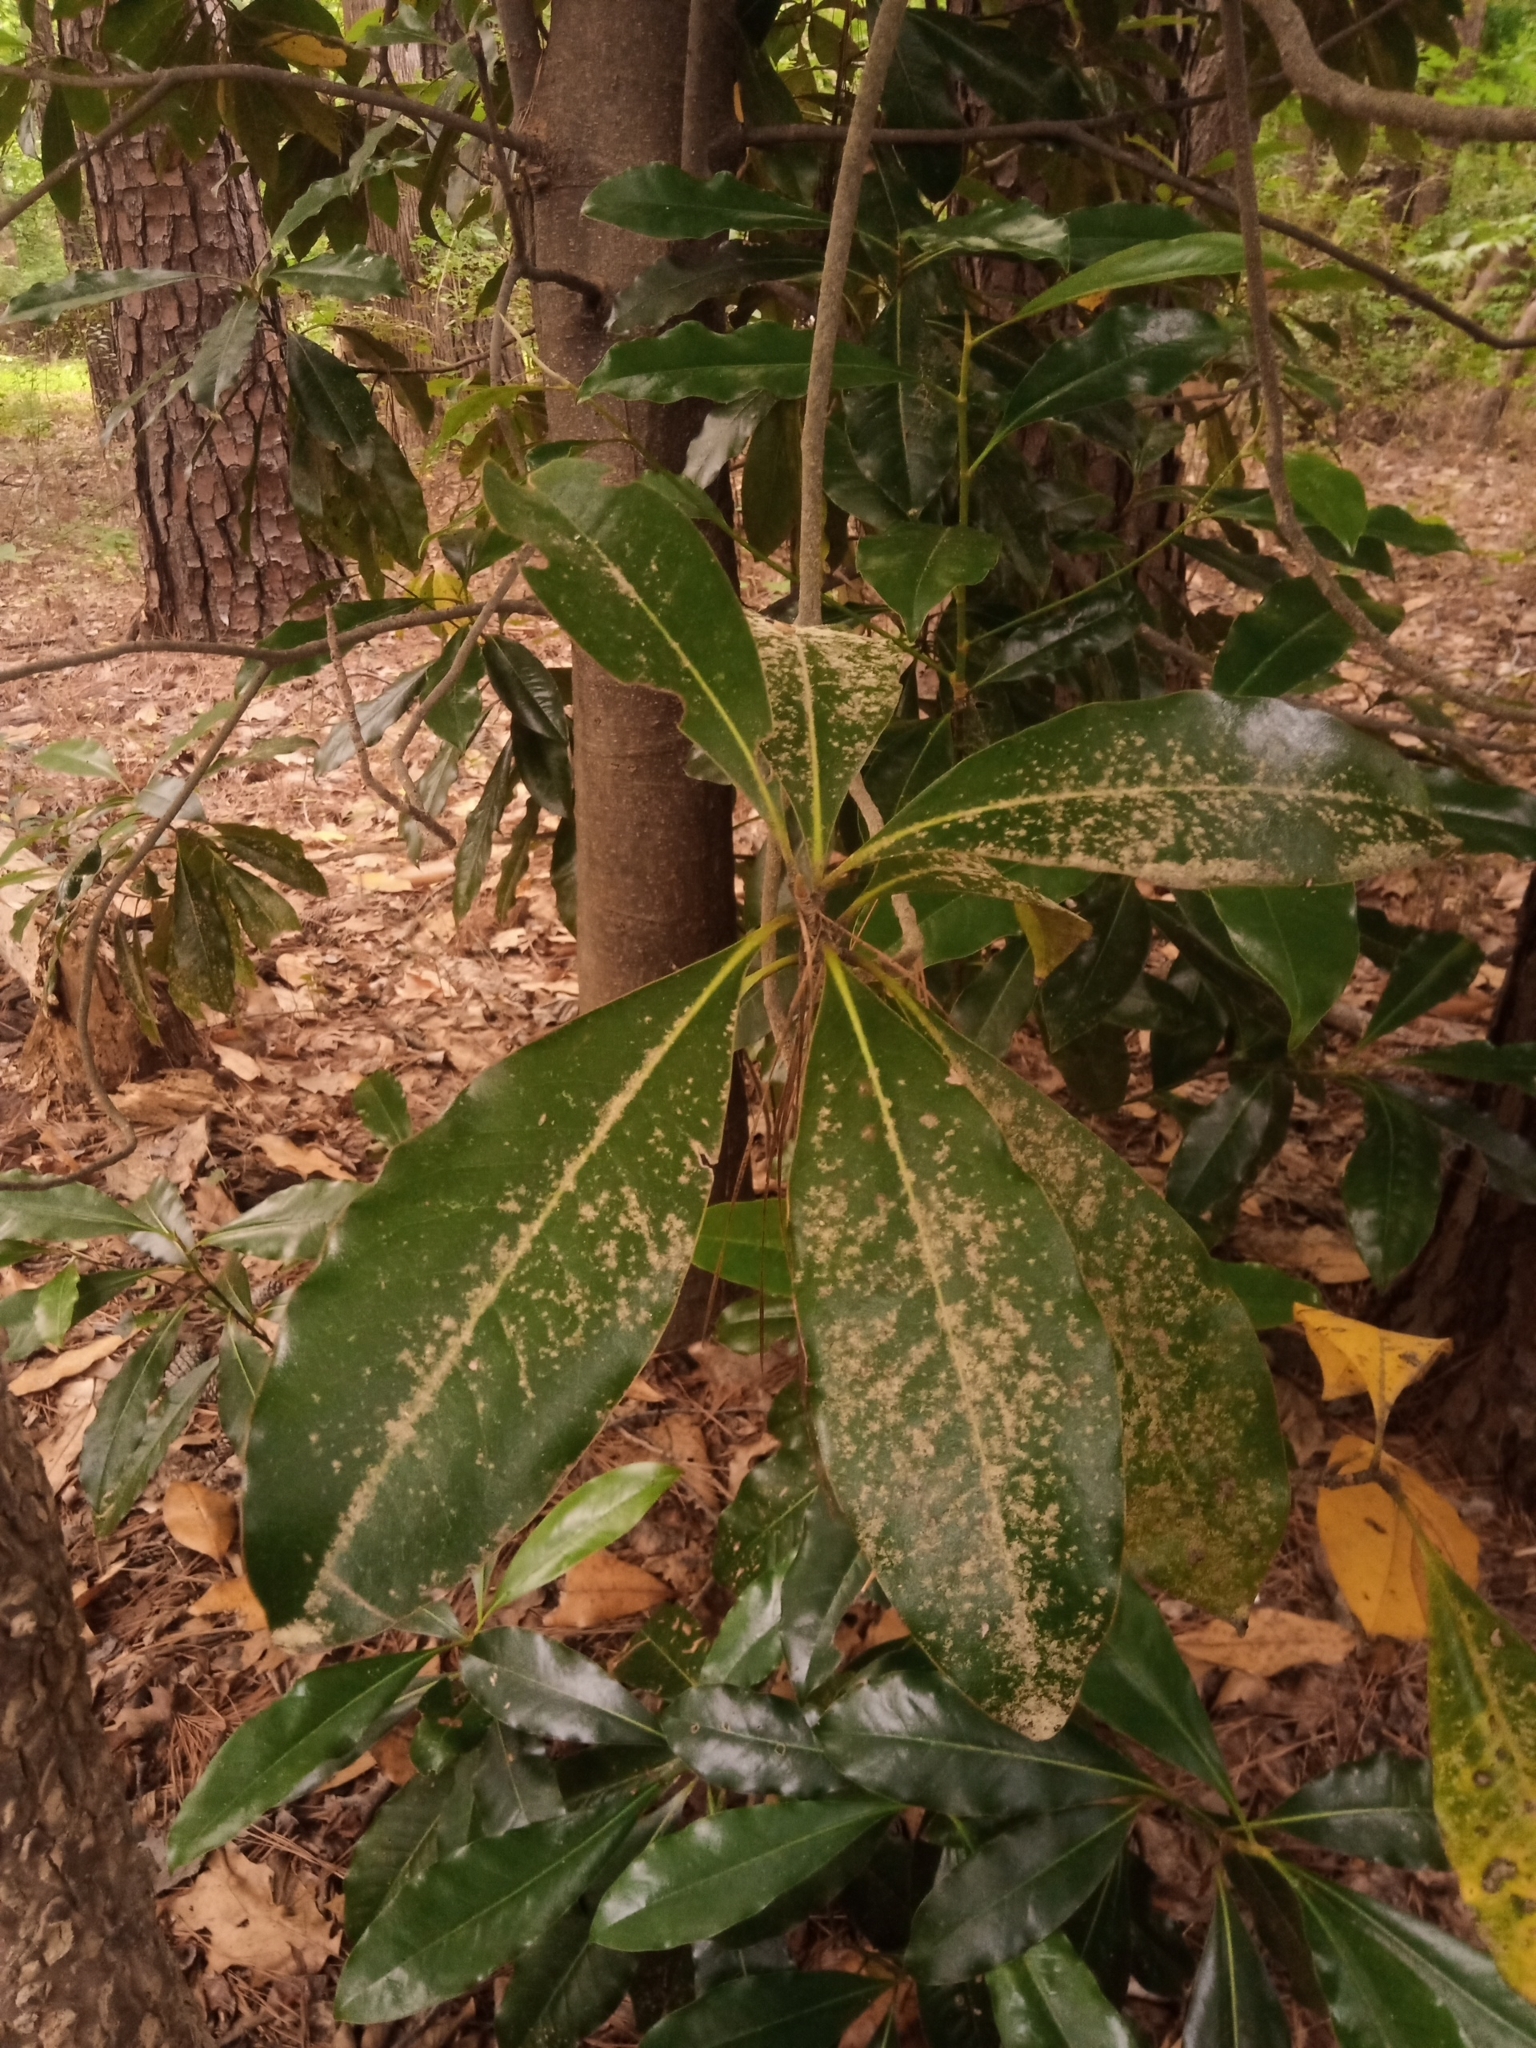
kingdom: Plantae
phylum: Tracheophyta
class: Magnoliopsida
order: Magnoliales
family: Magnoliaceae
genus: Magnolia
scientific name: Magnolia grandiflora
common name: Southern magnolia
